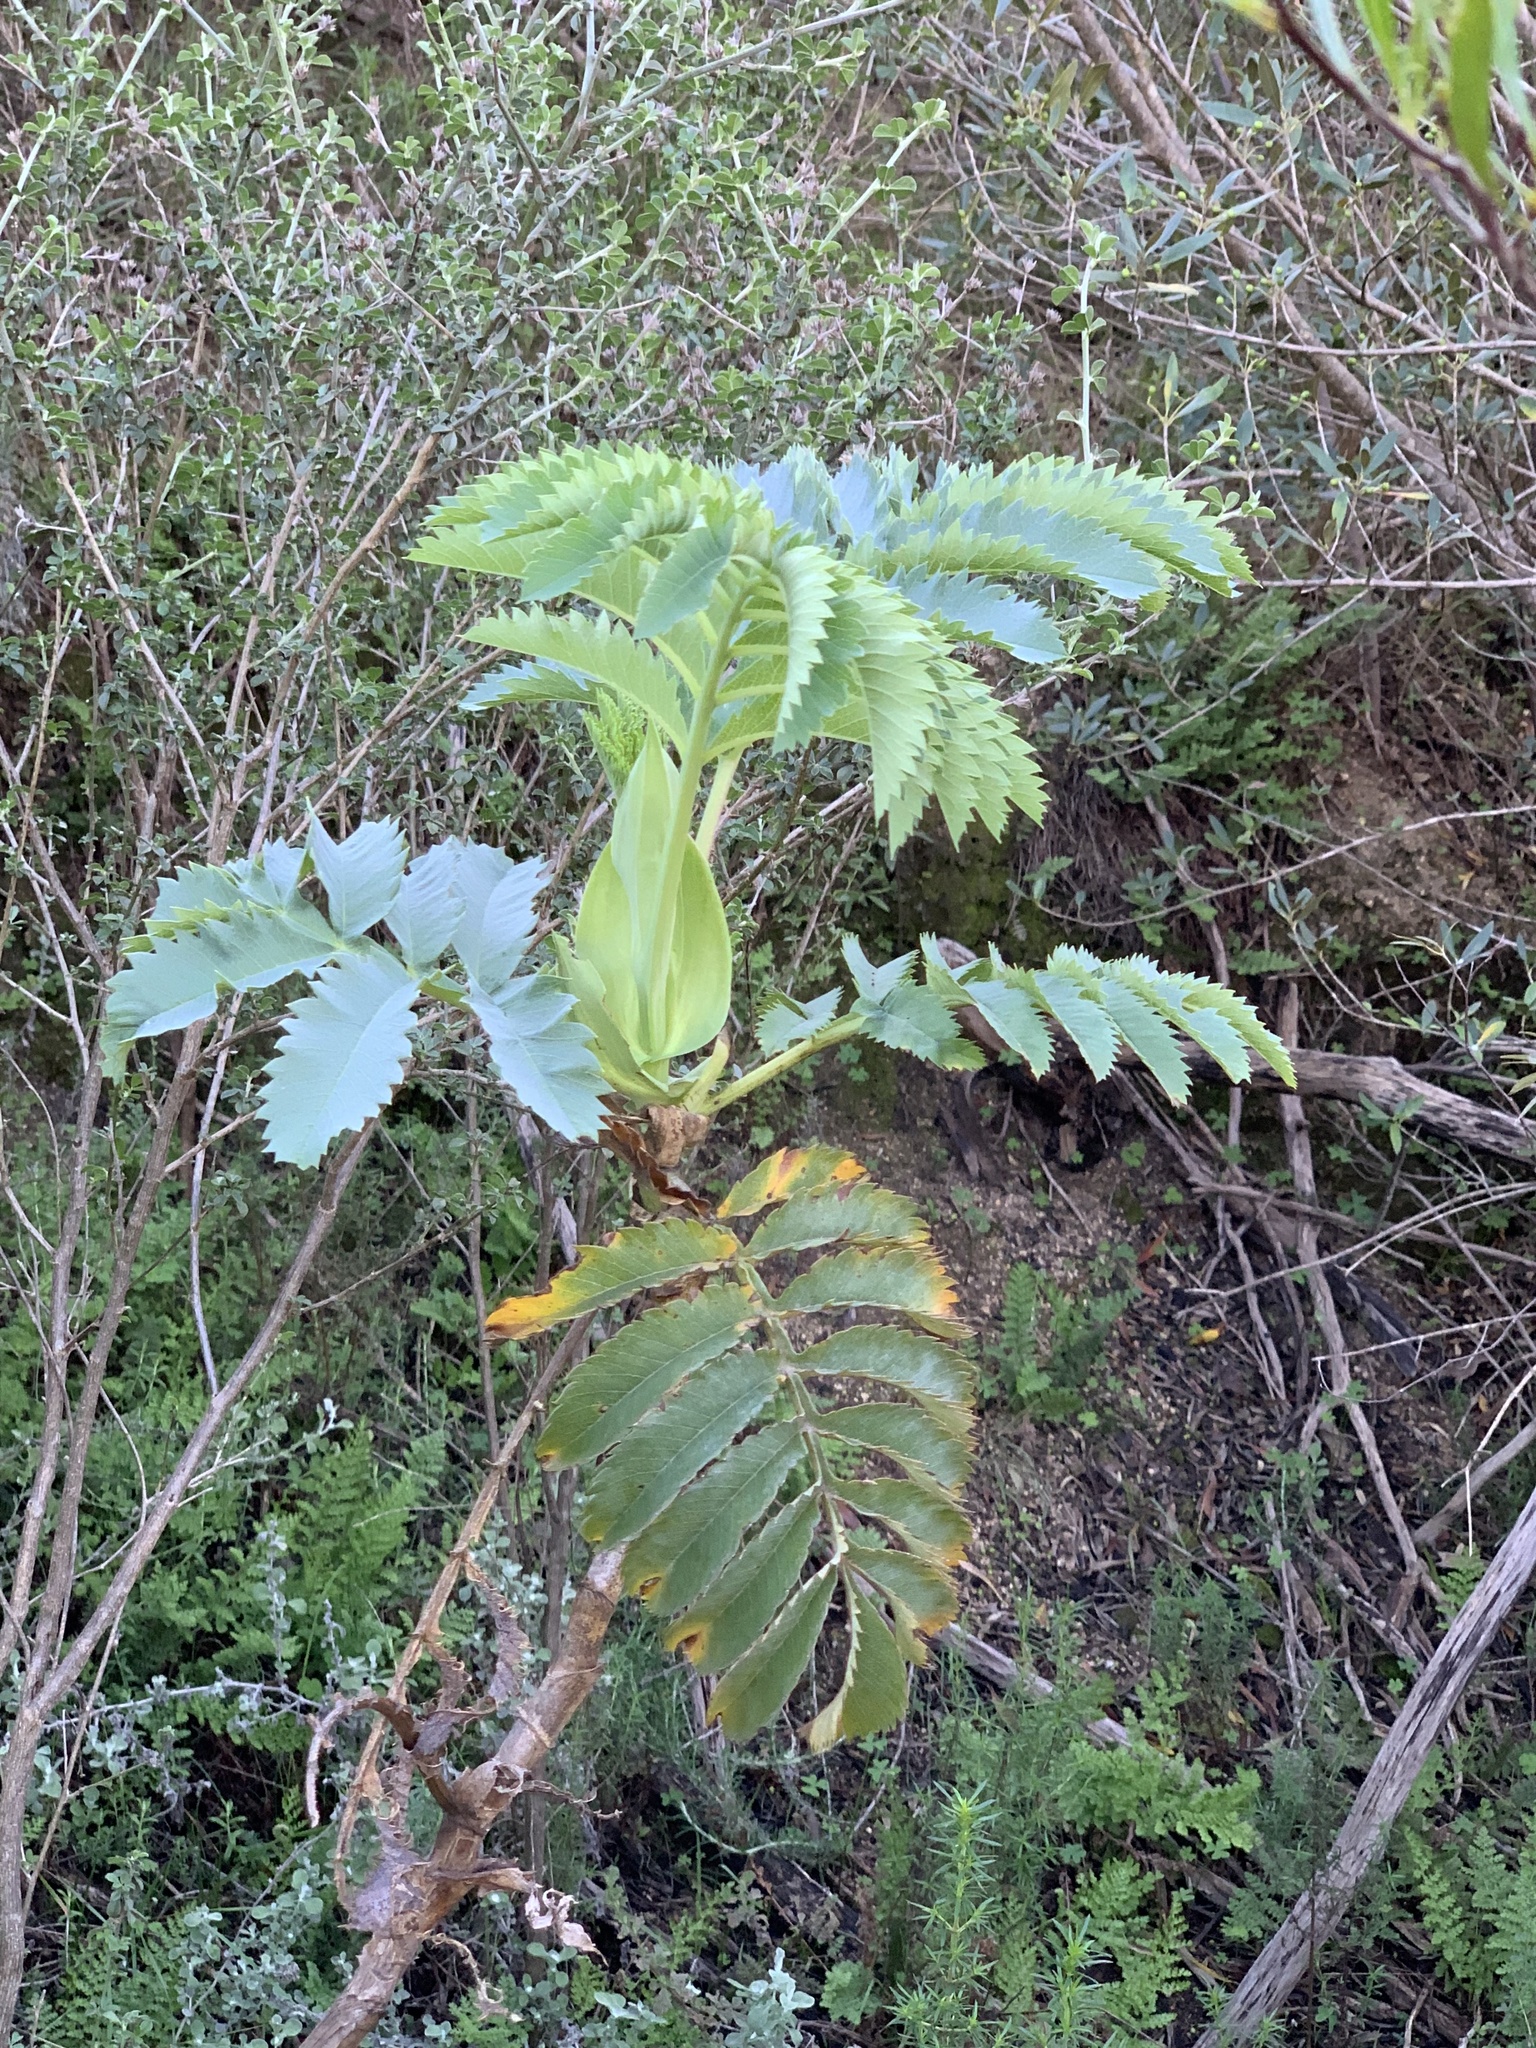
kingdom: Plantae
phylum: Tracheophyta
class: Magnoliopsida
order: Geraniales
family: Melianthaceae
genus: Melianthus
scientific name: Melianthus major
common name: Honey-flower
